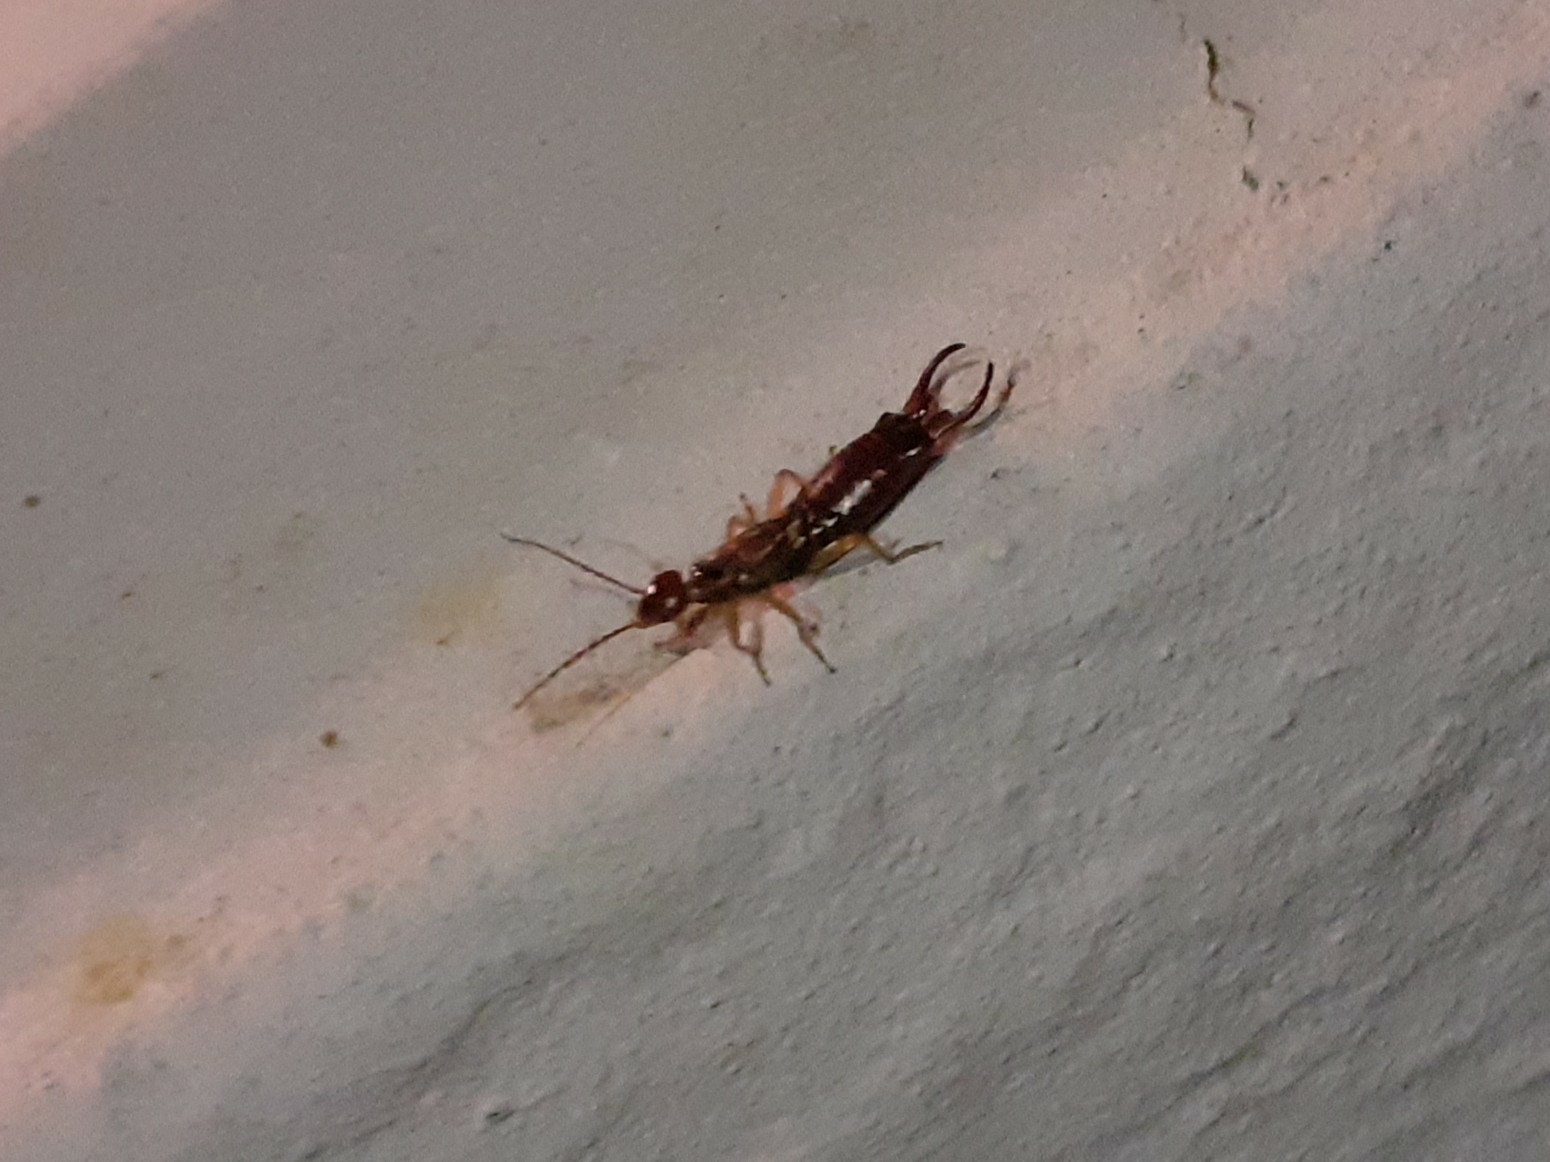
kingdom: Animalia
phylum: Arthropoda
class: Insecta
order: Dermaptera
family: Forficulidae
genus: Forficula
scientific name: Forficula
